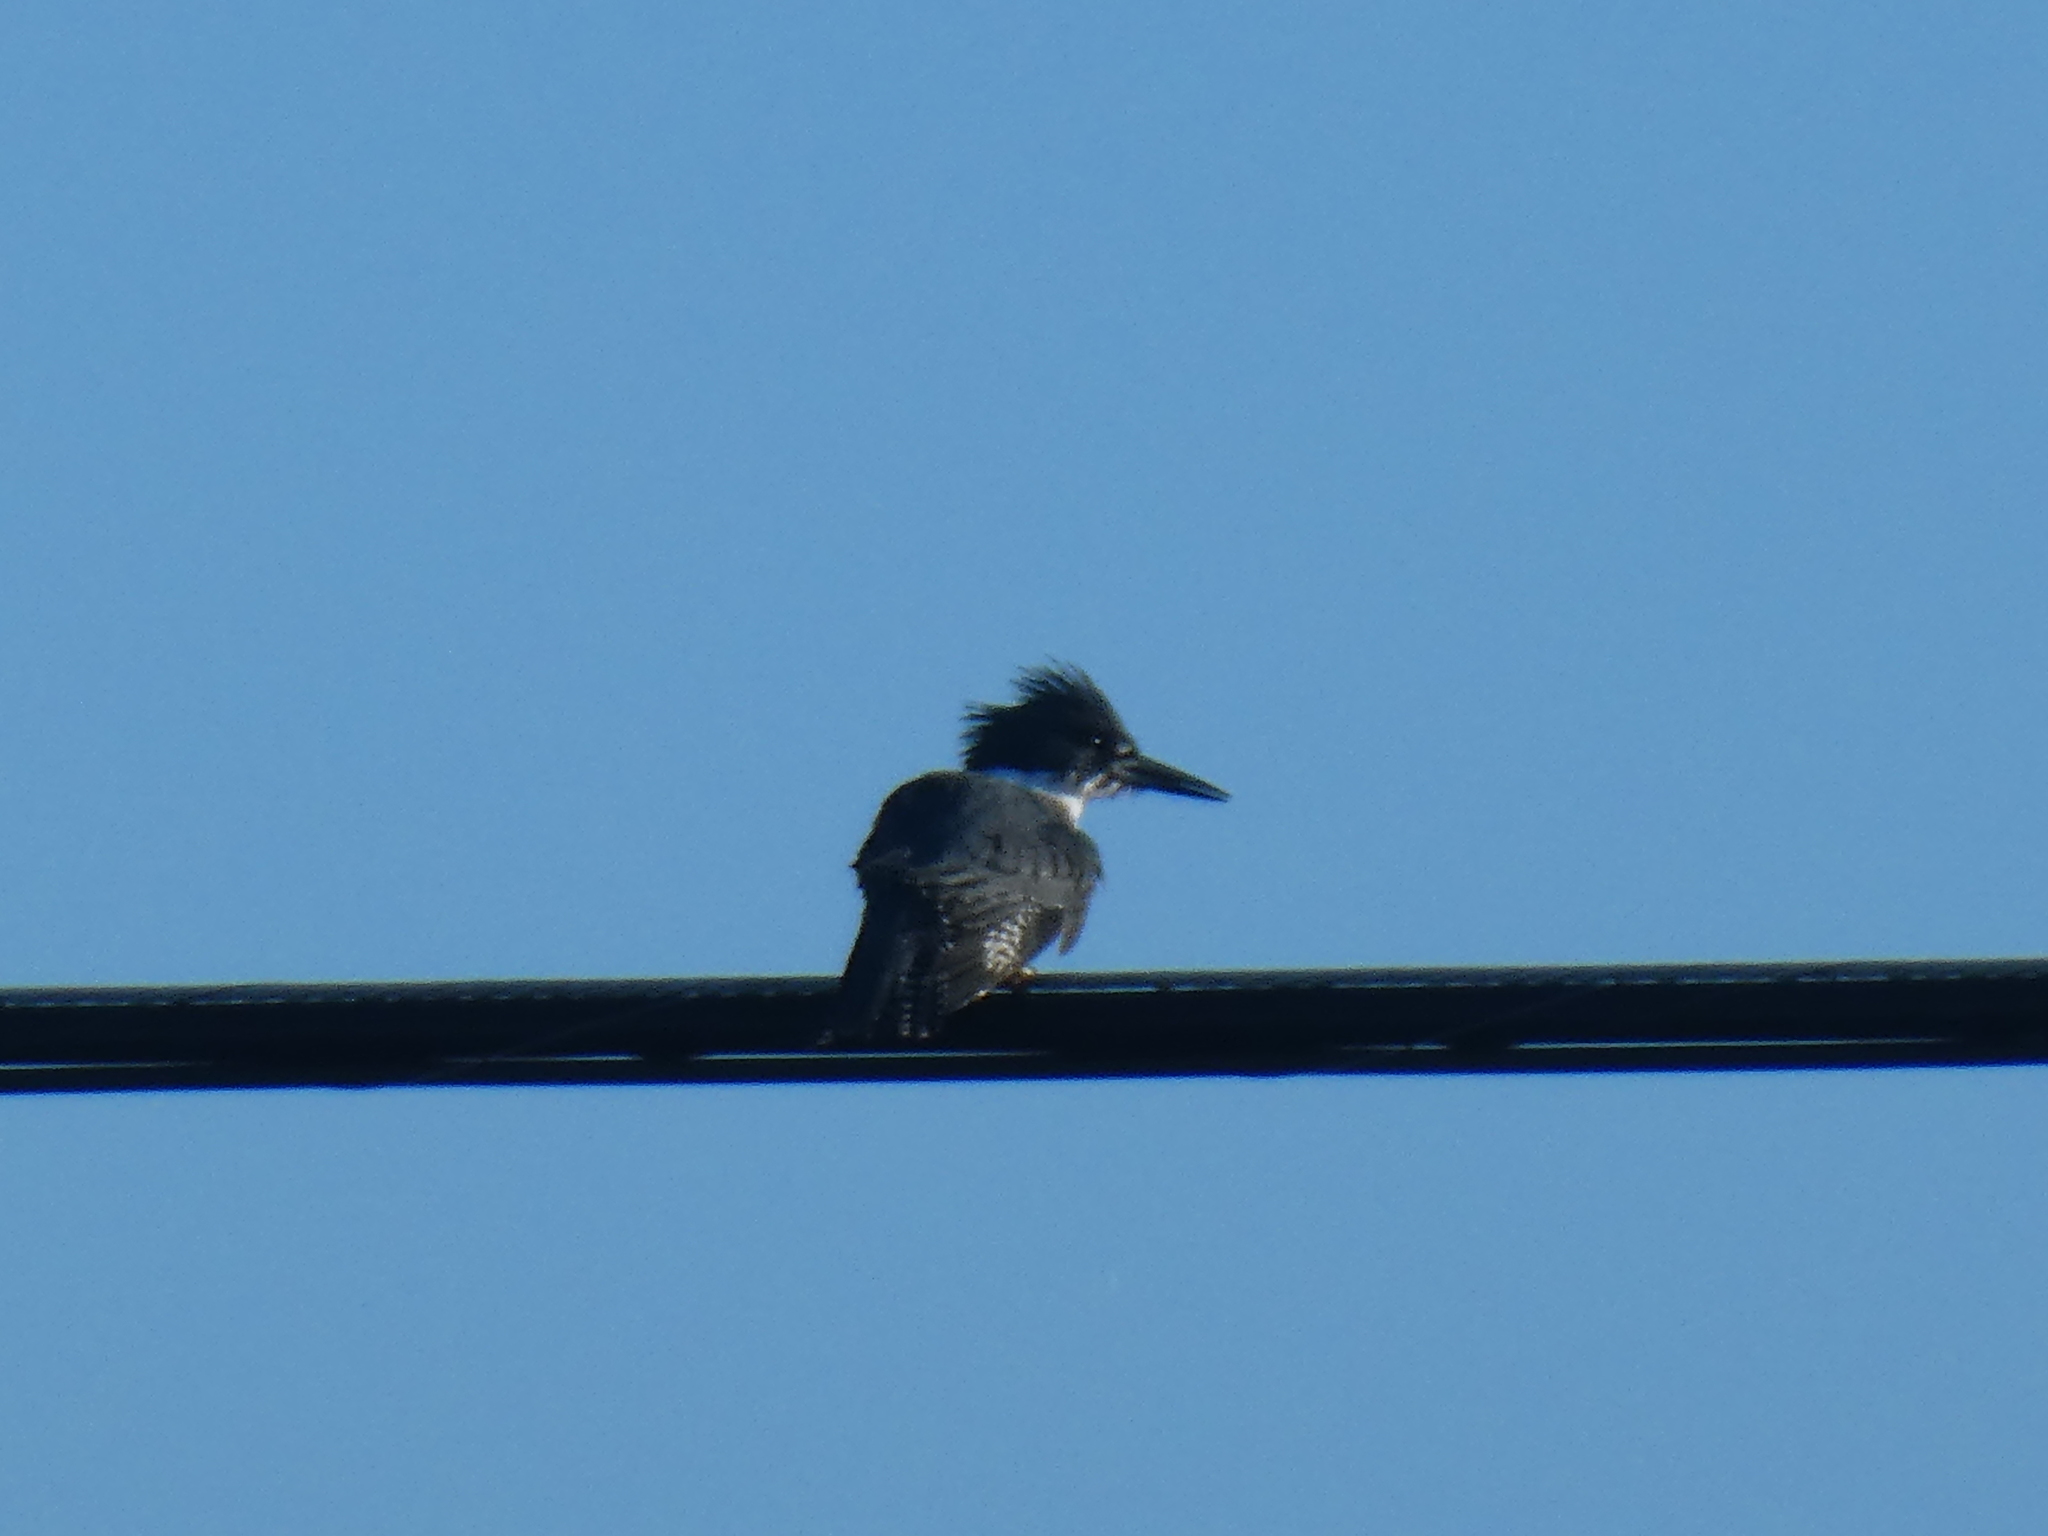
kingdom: Animalia
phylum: Chordata
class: Aves
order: Coraciiformes
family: Alcedinidae
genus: Megaceryle
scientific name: Megaceryle alcyon
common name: Belted kingfisher
